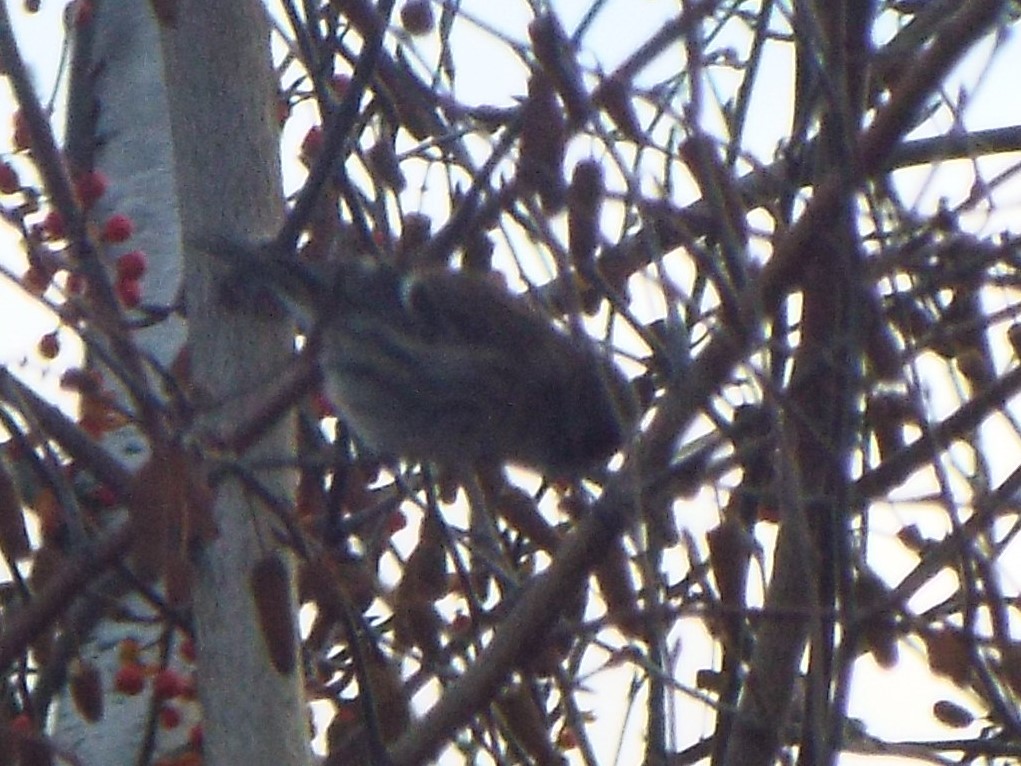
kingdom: Animalia
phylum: Chordata
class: Aves
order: Passeriformes
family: Fringillidae
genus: Acanthis
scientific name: Acanthis flammea
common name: Common redpoll
